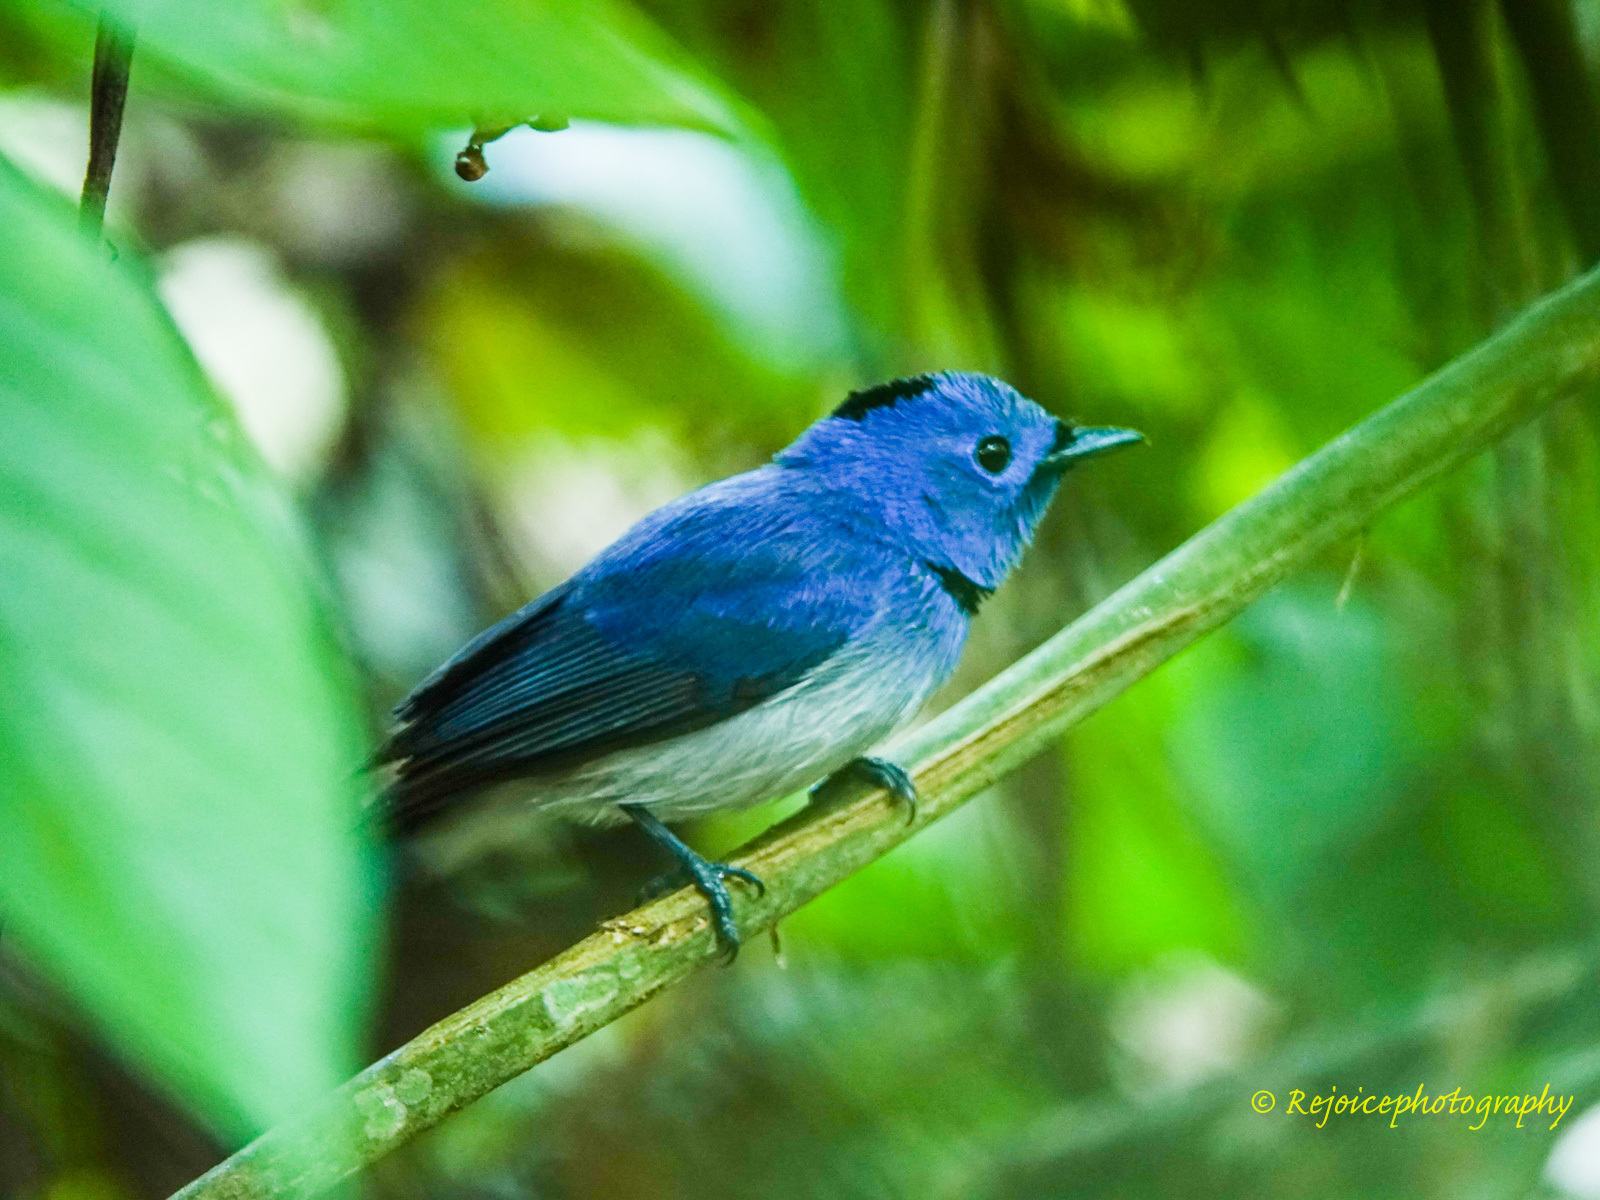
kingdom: Animalia
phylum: Chordata
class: Aves
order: Passeriformes
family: Monarchidae
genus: Hypothymis
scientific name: Hypothymis azurea
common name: Black-naped monarch
